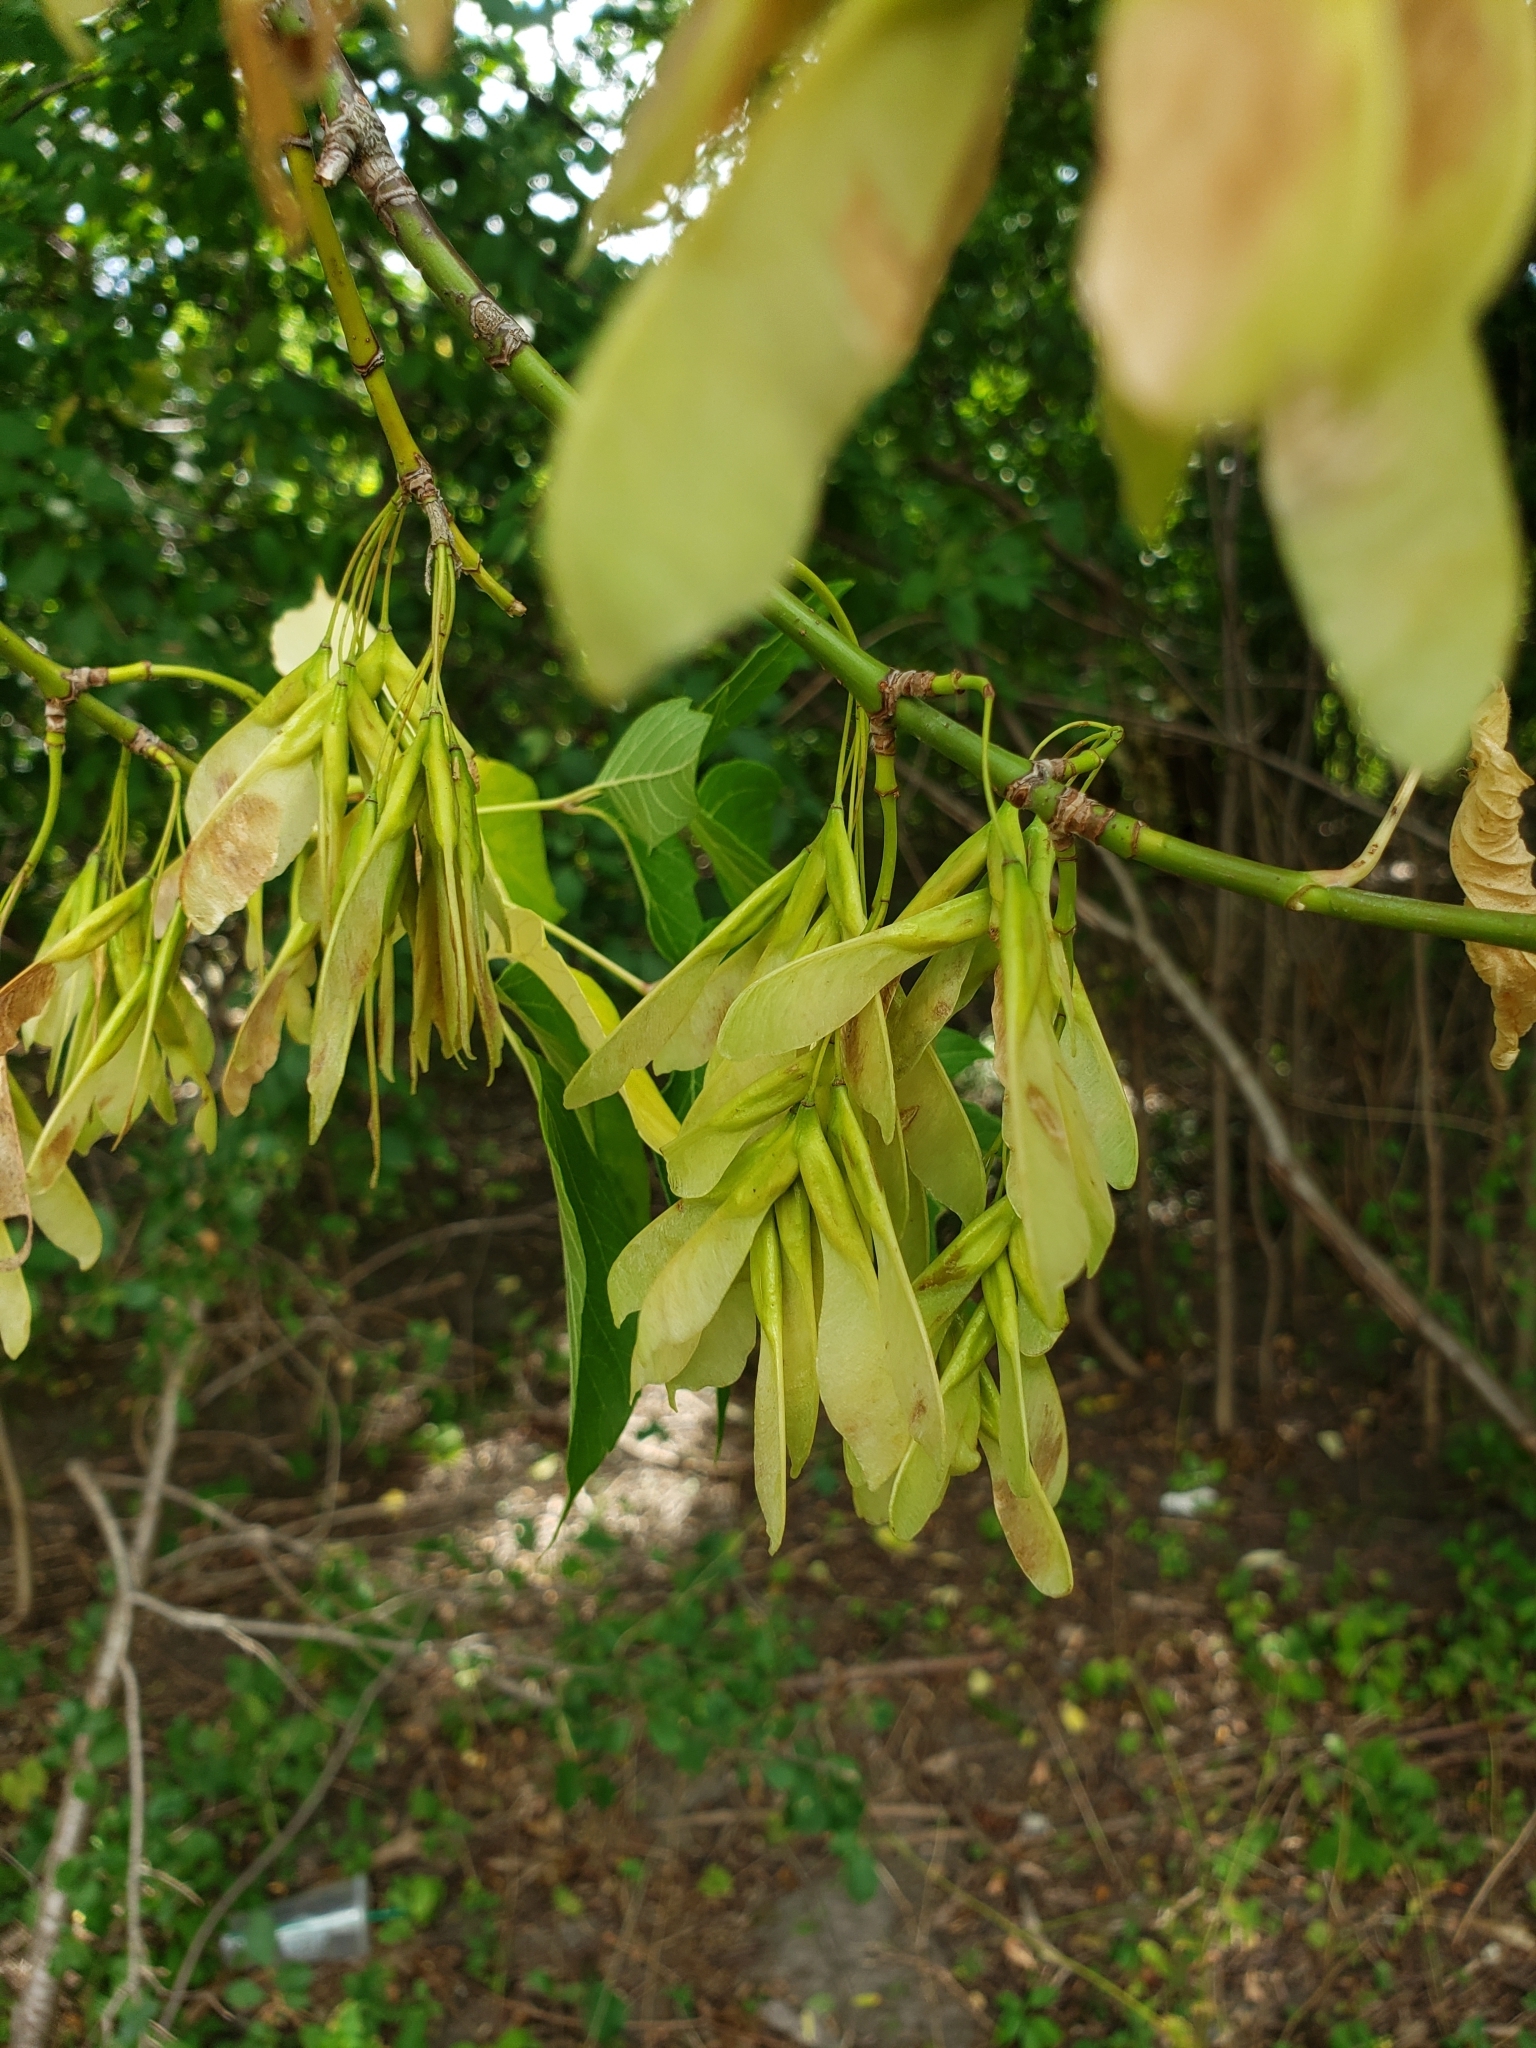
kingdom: Plantae
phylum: Tracheophyta
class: Magnoliopsida
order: Sapindales
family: Sapindaceae
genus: Acer
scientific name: Acer negundo
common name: Ashleaf maple
